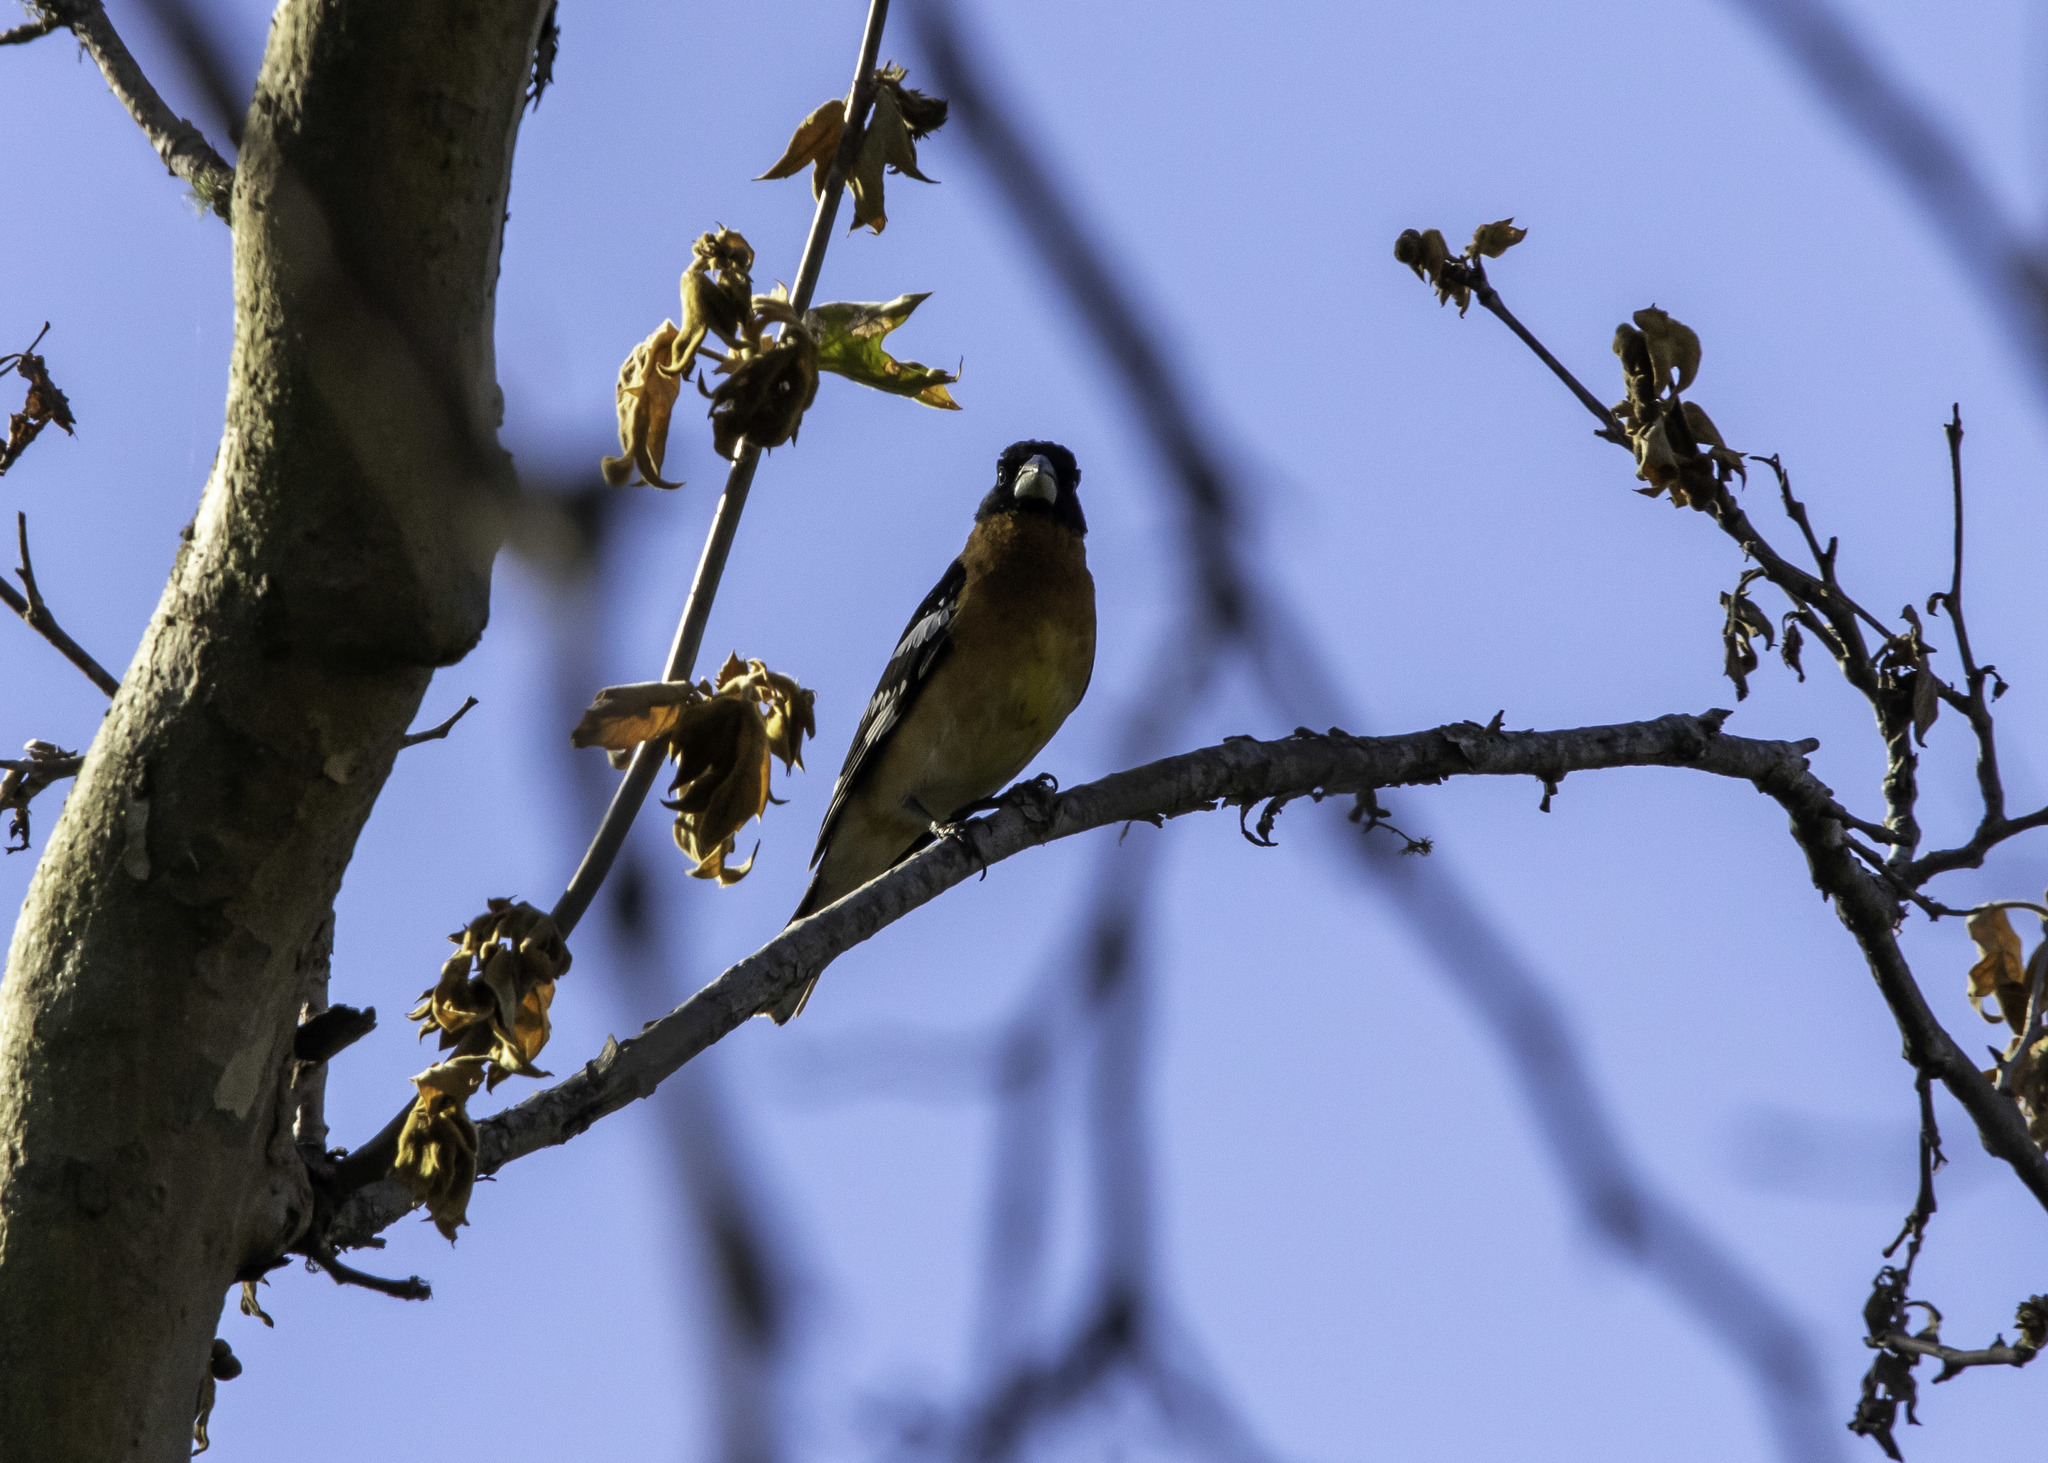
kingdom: Animalia
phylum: Chordata
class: Aves
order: Passeriformes
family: Cardinalidae
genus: Pheucticus
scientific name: Pheucticus melanocephalus
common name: Black-headed grosbeak
